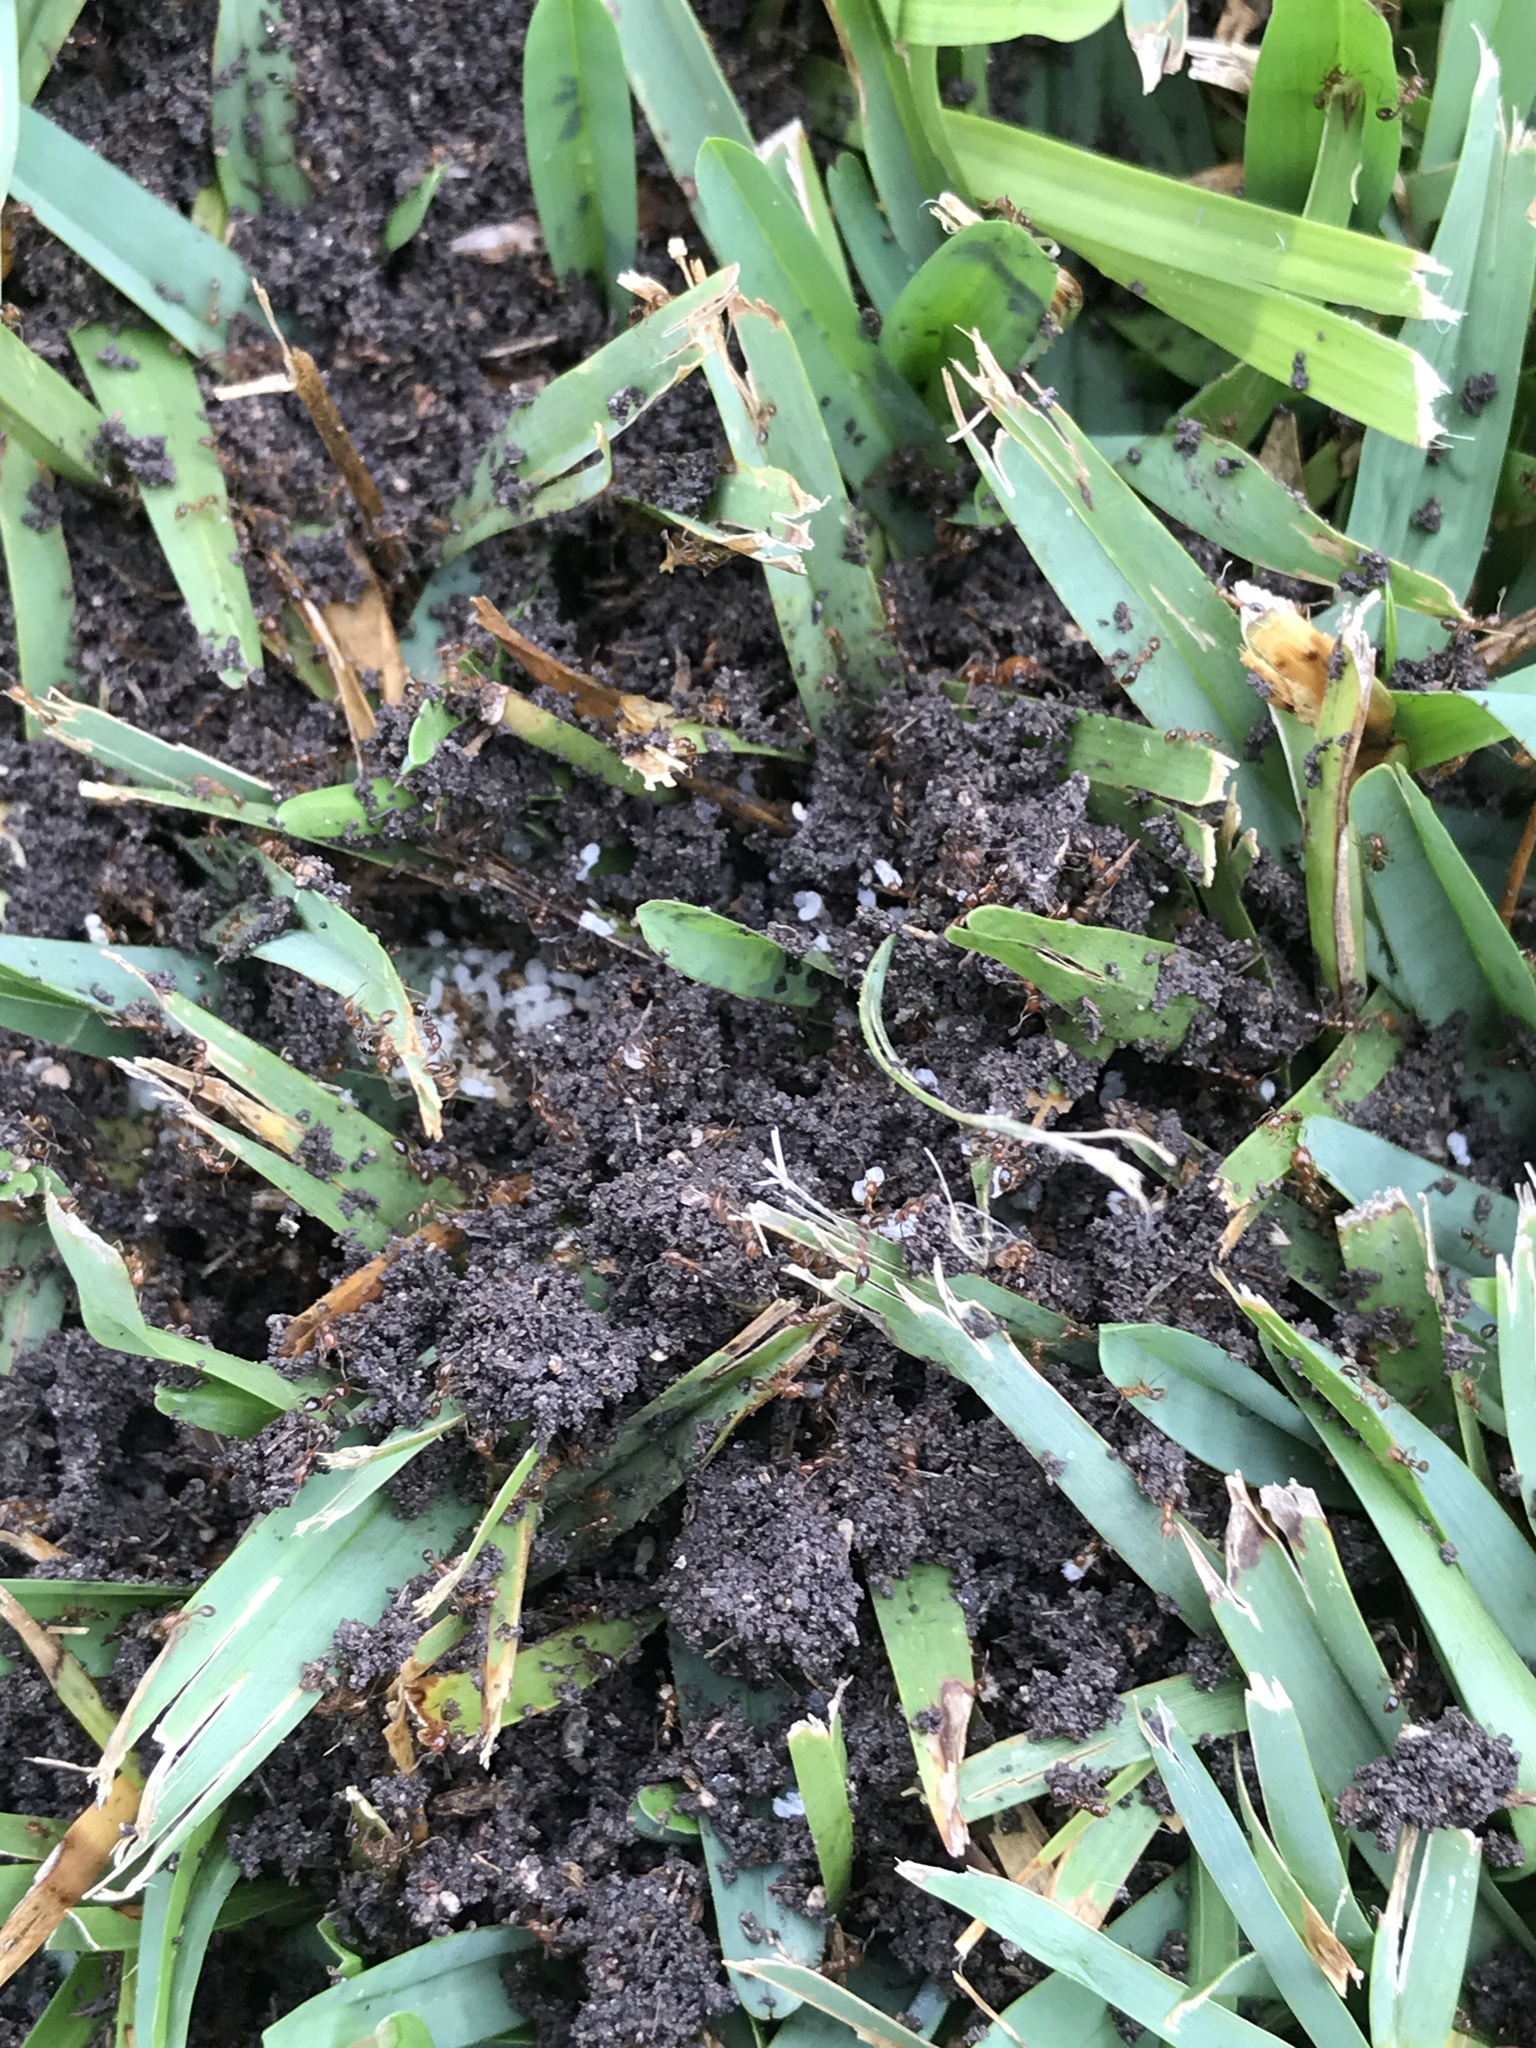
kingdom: Animalia
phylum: Arthropoda
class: Insecta
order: Hymenoptera
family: Formicidae
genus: Solenopsis
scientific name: Solenopsis geminata
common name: Tropical fire ant
